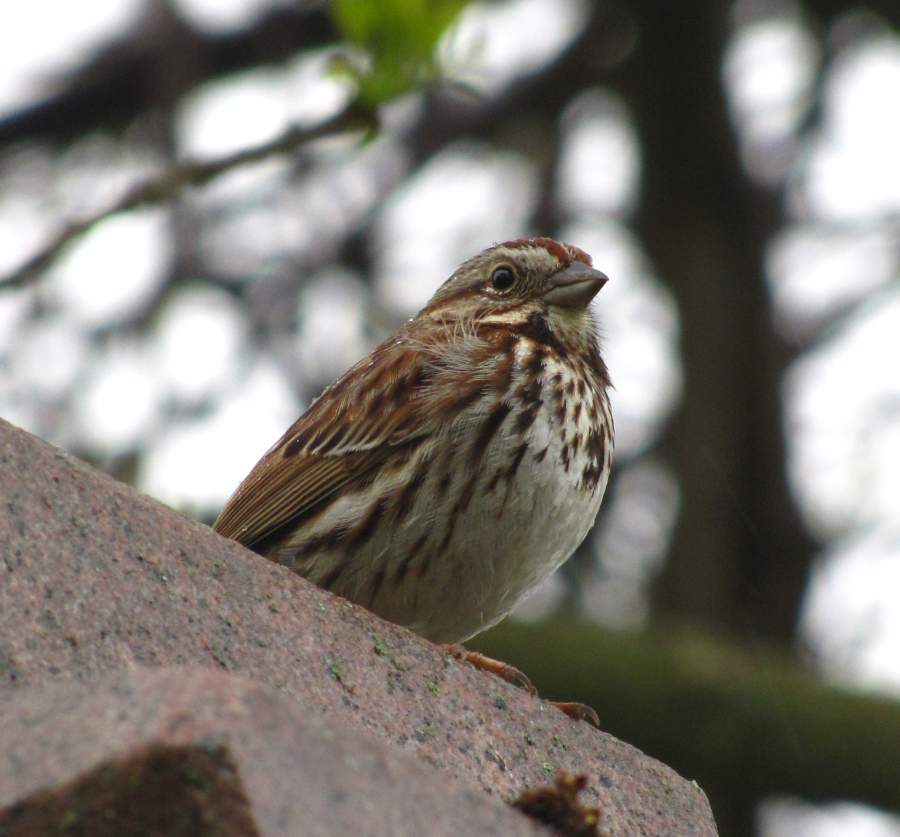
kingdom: Animalia
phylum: Chordata
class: Aves
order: Passeriformes
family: Passerellidae
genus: Melospiza
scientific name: Melospiza melodia
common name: Song sparrow
